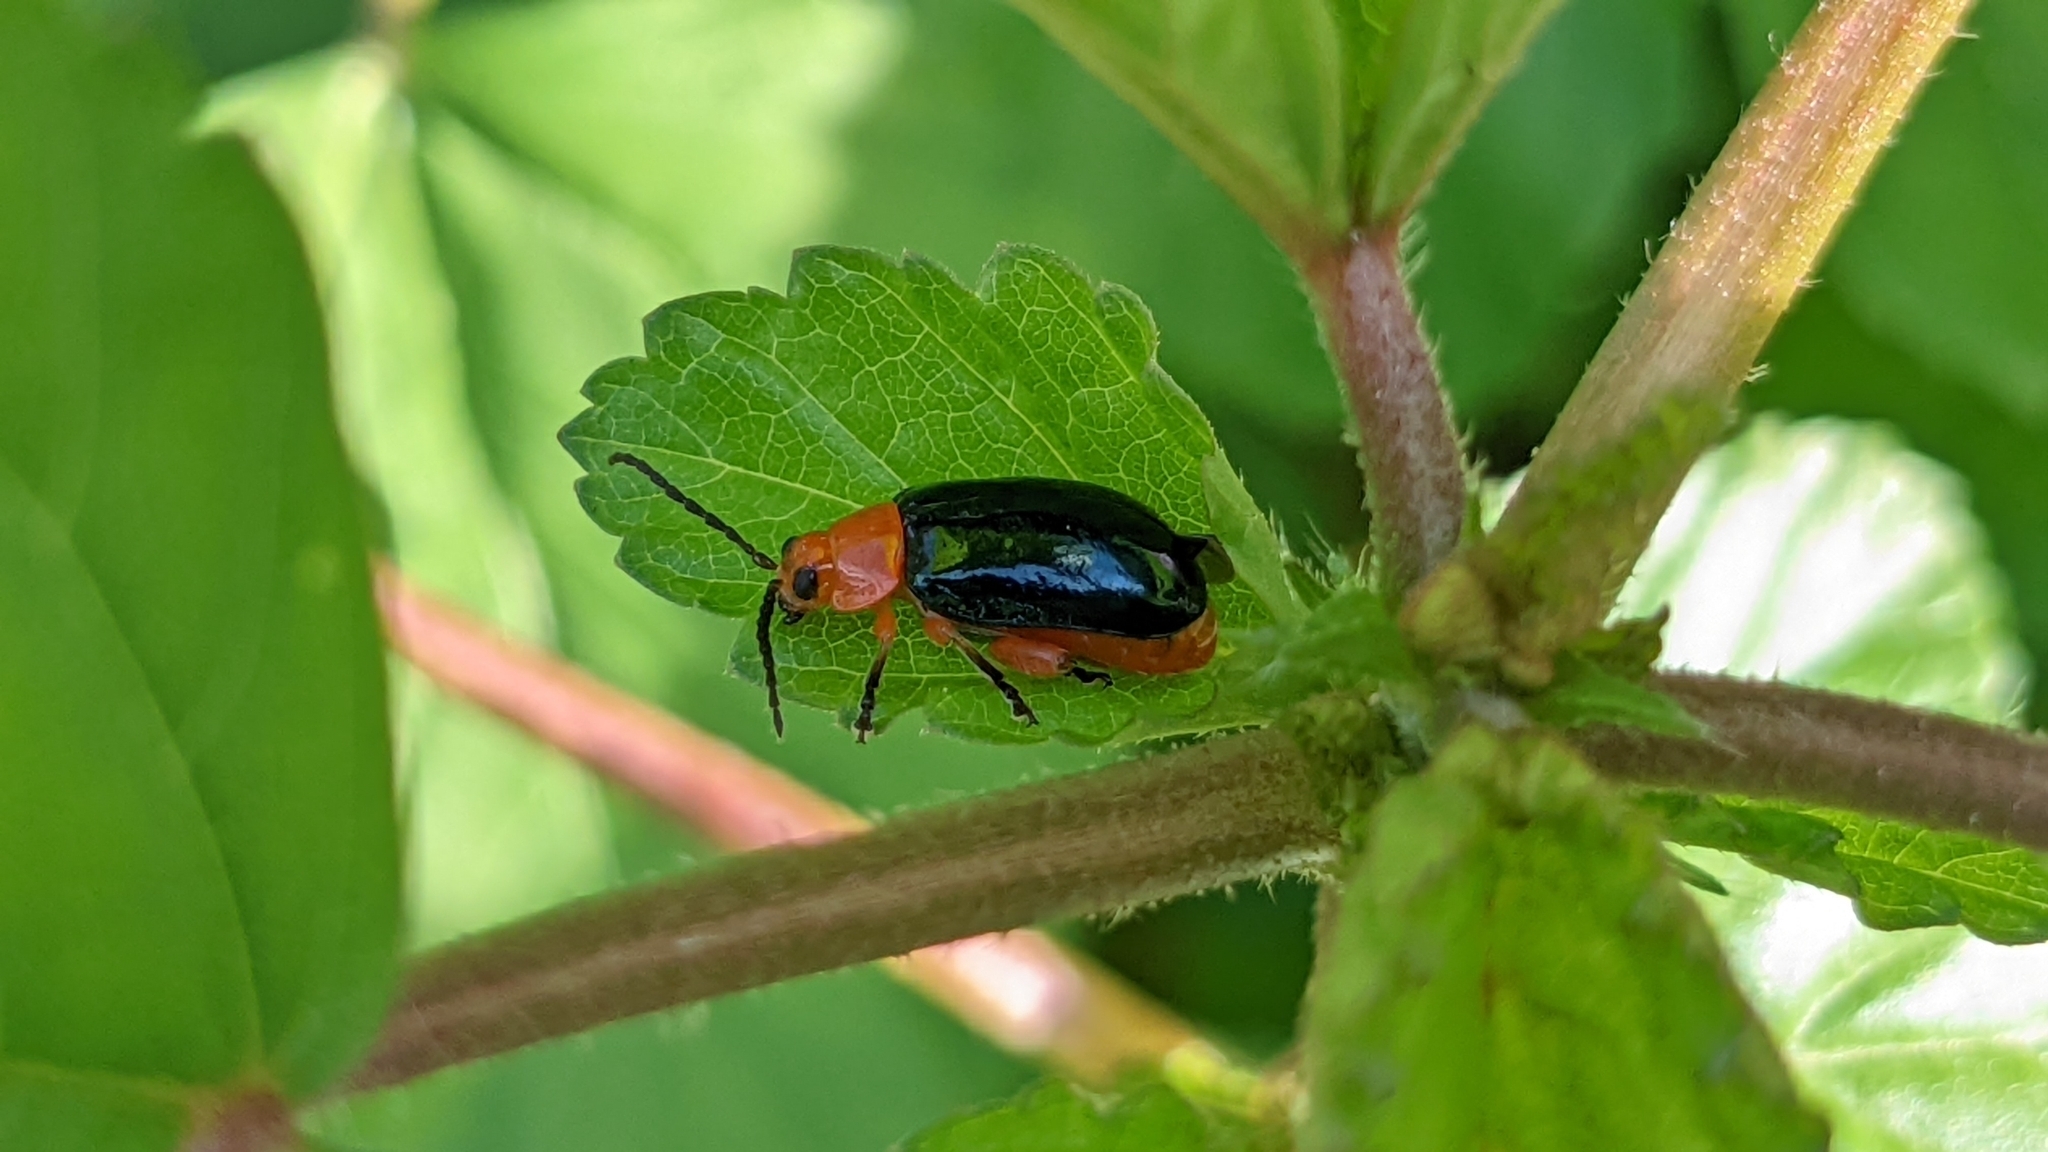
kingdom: Animalia
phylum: Arthropoda
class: Insecta
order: Coleoptera
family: Chrysomelidae
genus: Asphaera
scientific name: Asphaera lustrans
